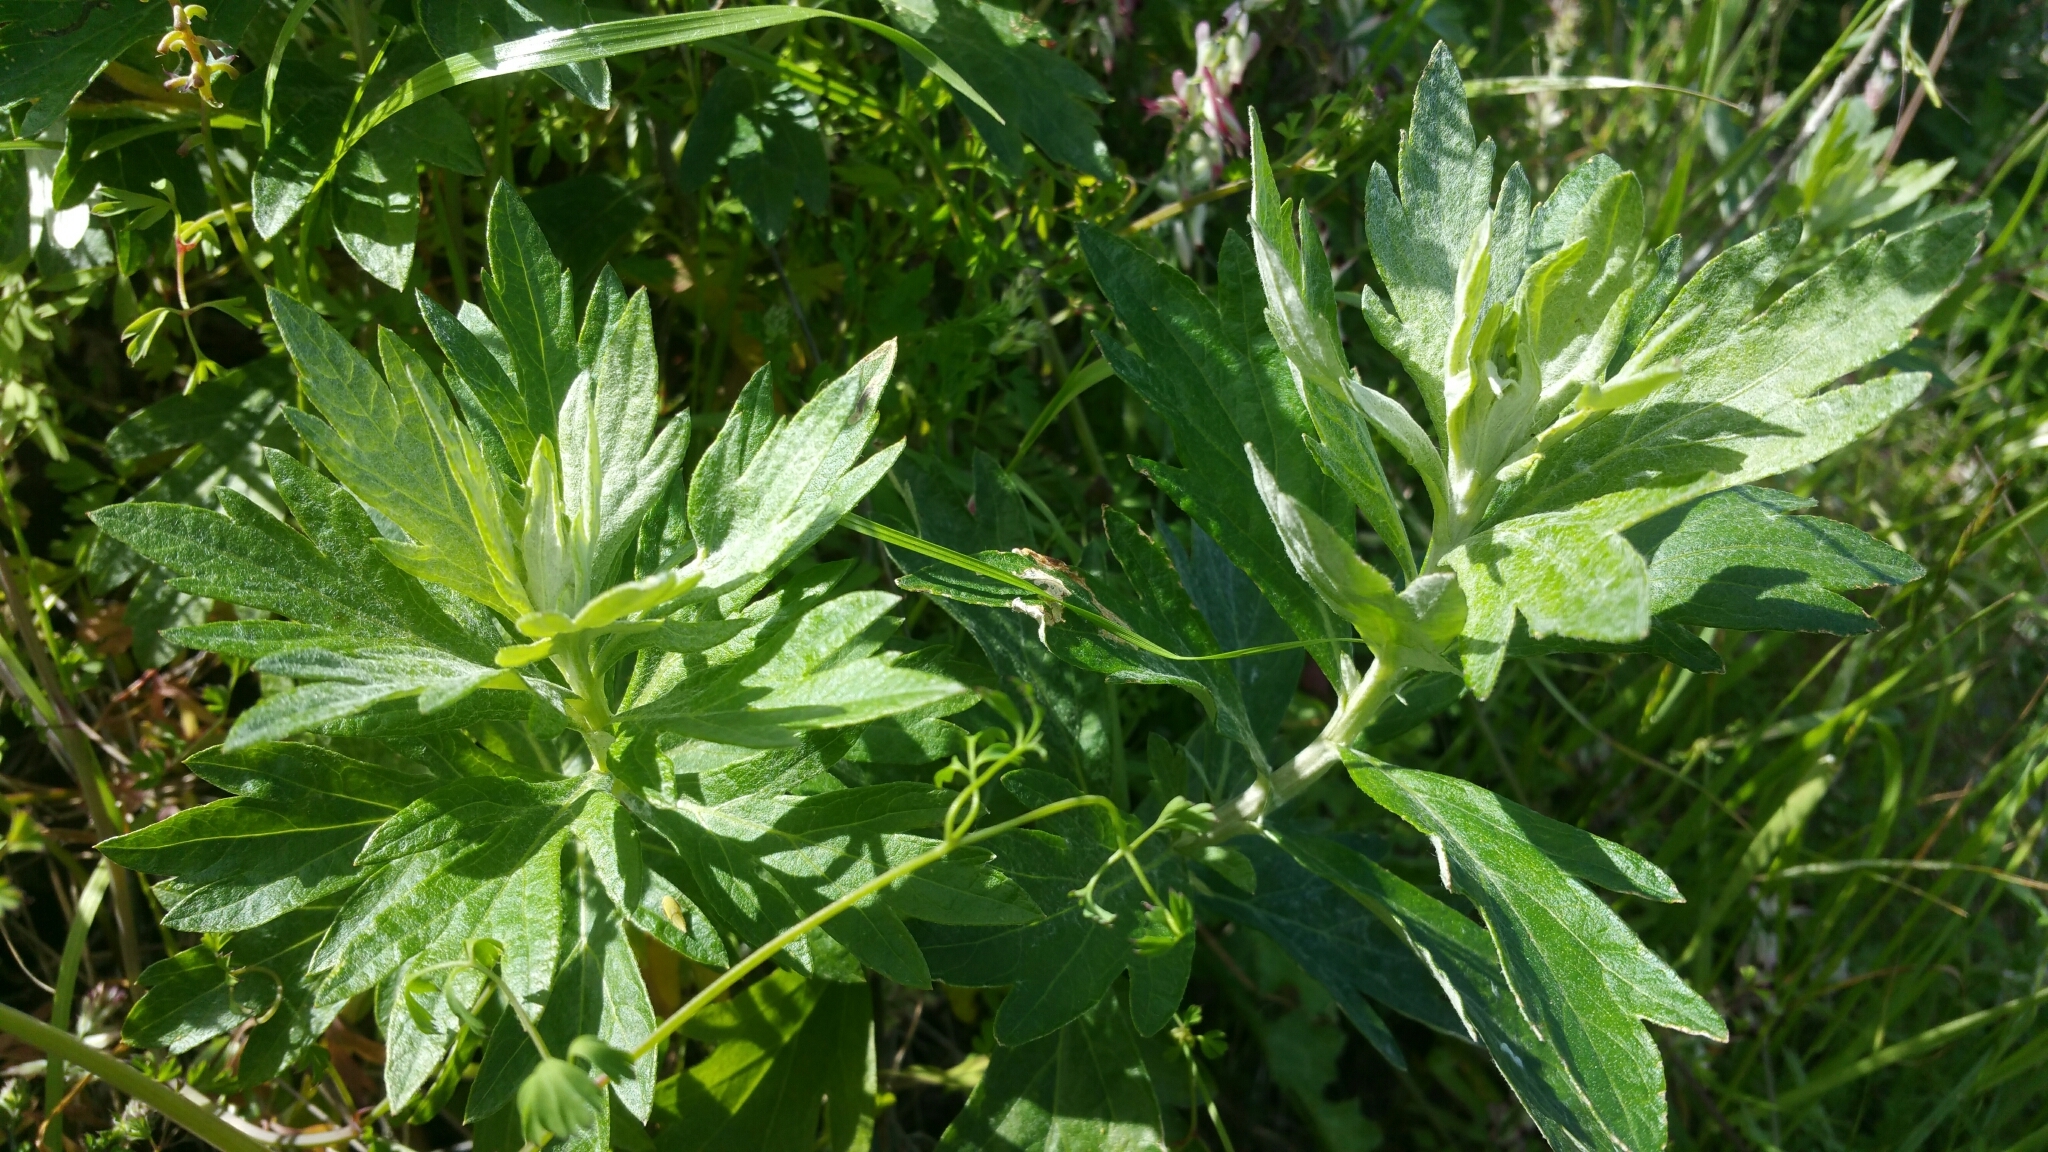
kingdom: Plantae
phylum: Tracheophyta
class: Magnoliopsida
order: Asterales
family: Asteraceae
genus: Artemisia
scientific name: Artemisia douglasiana
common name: Northwest mugwort
